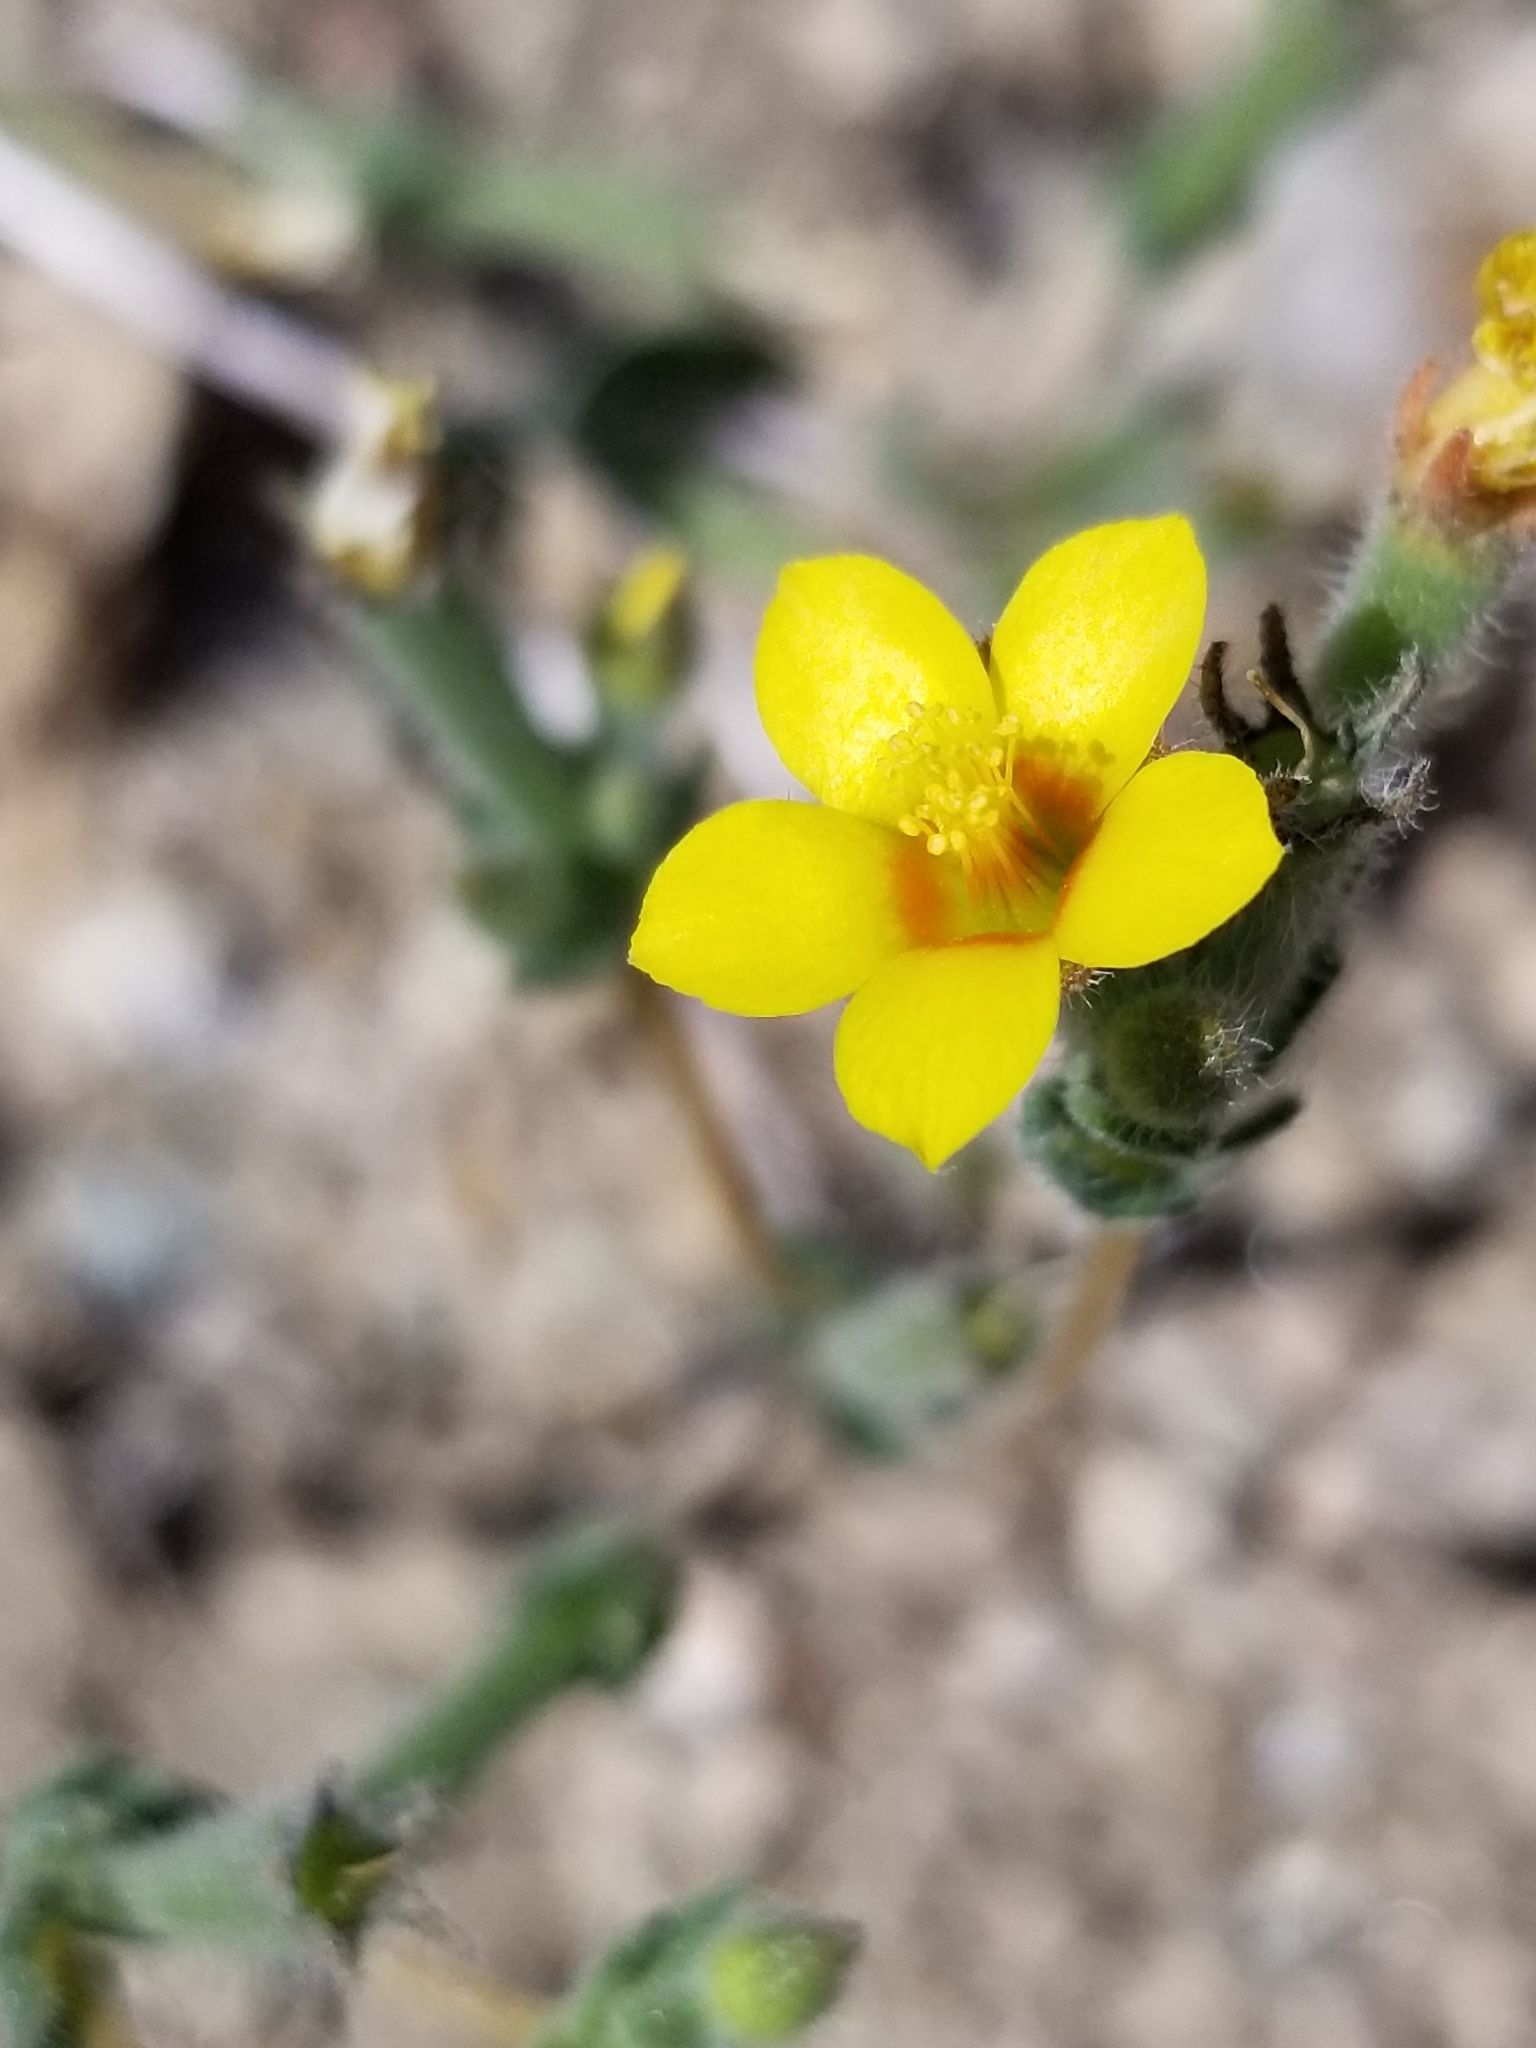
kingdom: Plantae
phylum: Tracheophyta
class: Magnoliopsida
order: Cornales
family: Loasaceae
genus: Mentzelia
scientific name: Mentzelia albicaulis
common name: White-stem blazingstar
